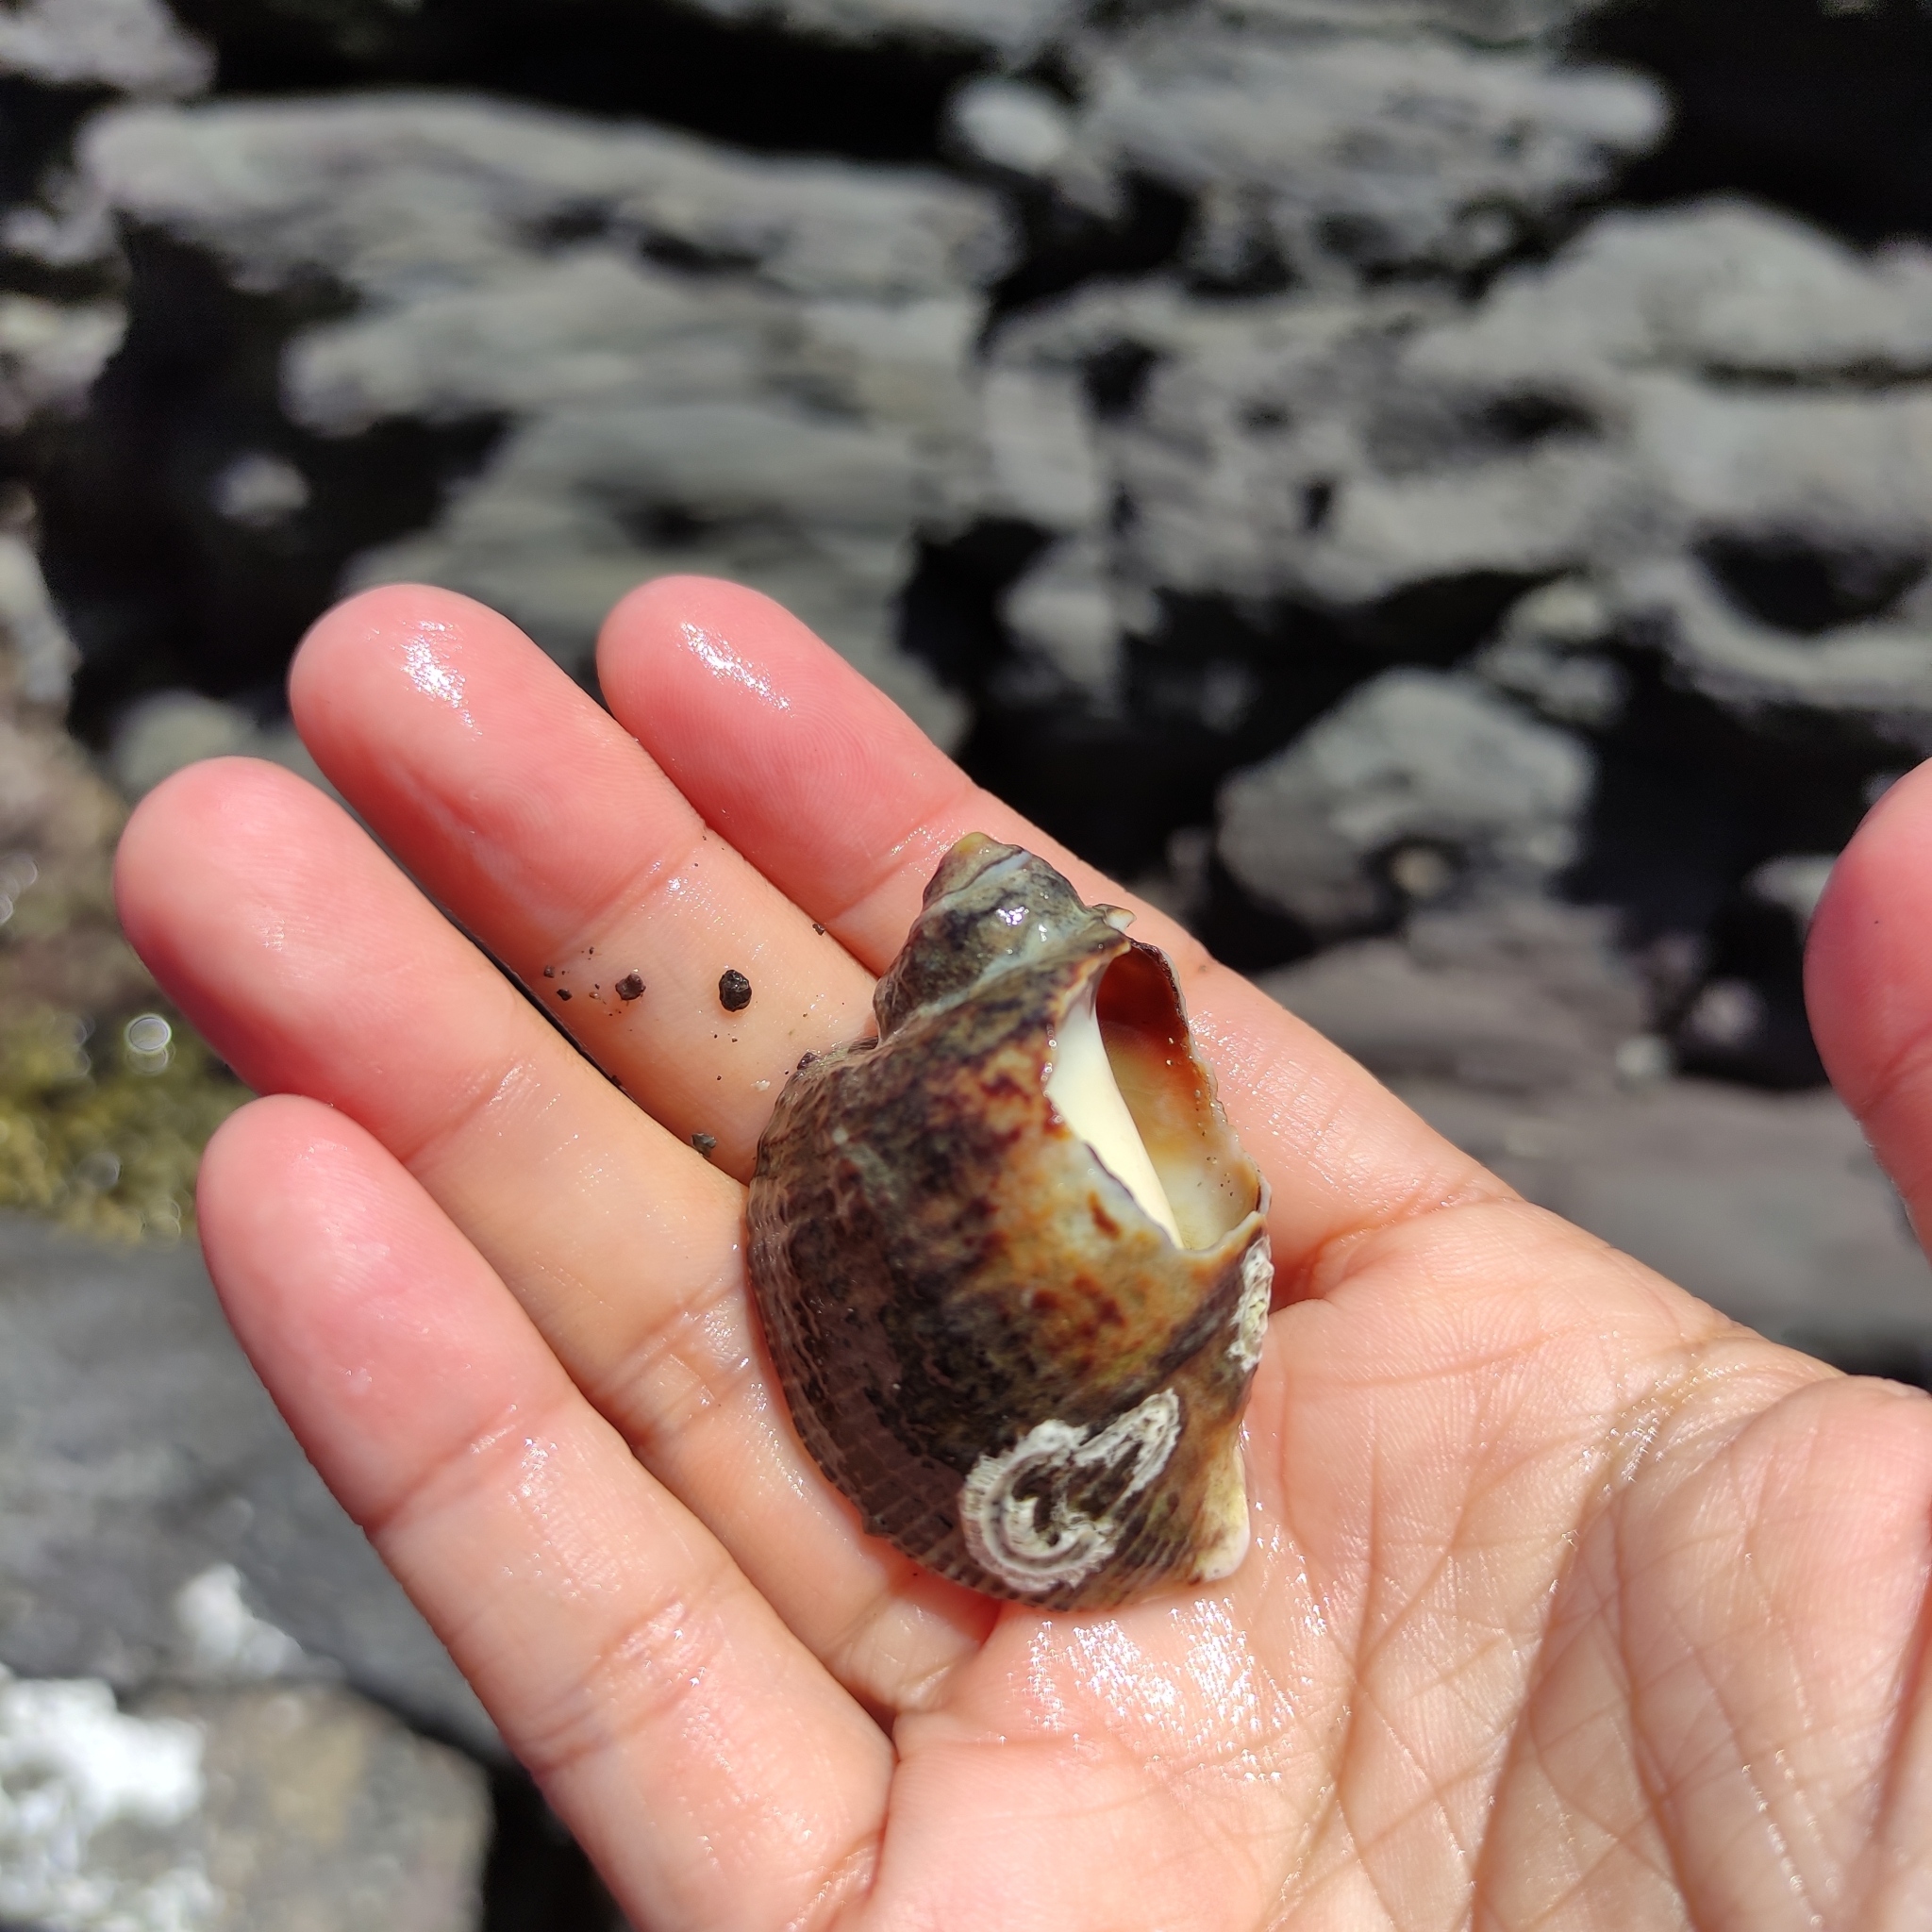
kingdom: Animalia
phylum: Mollusca
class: Gastropoda
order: Neogastropoda
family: Muricidae
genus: Haustrum
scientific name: Haustrum haustorium
